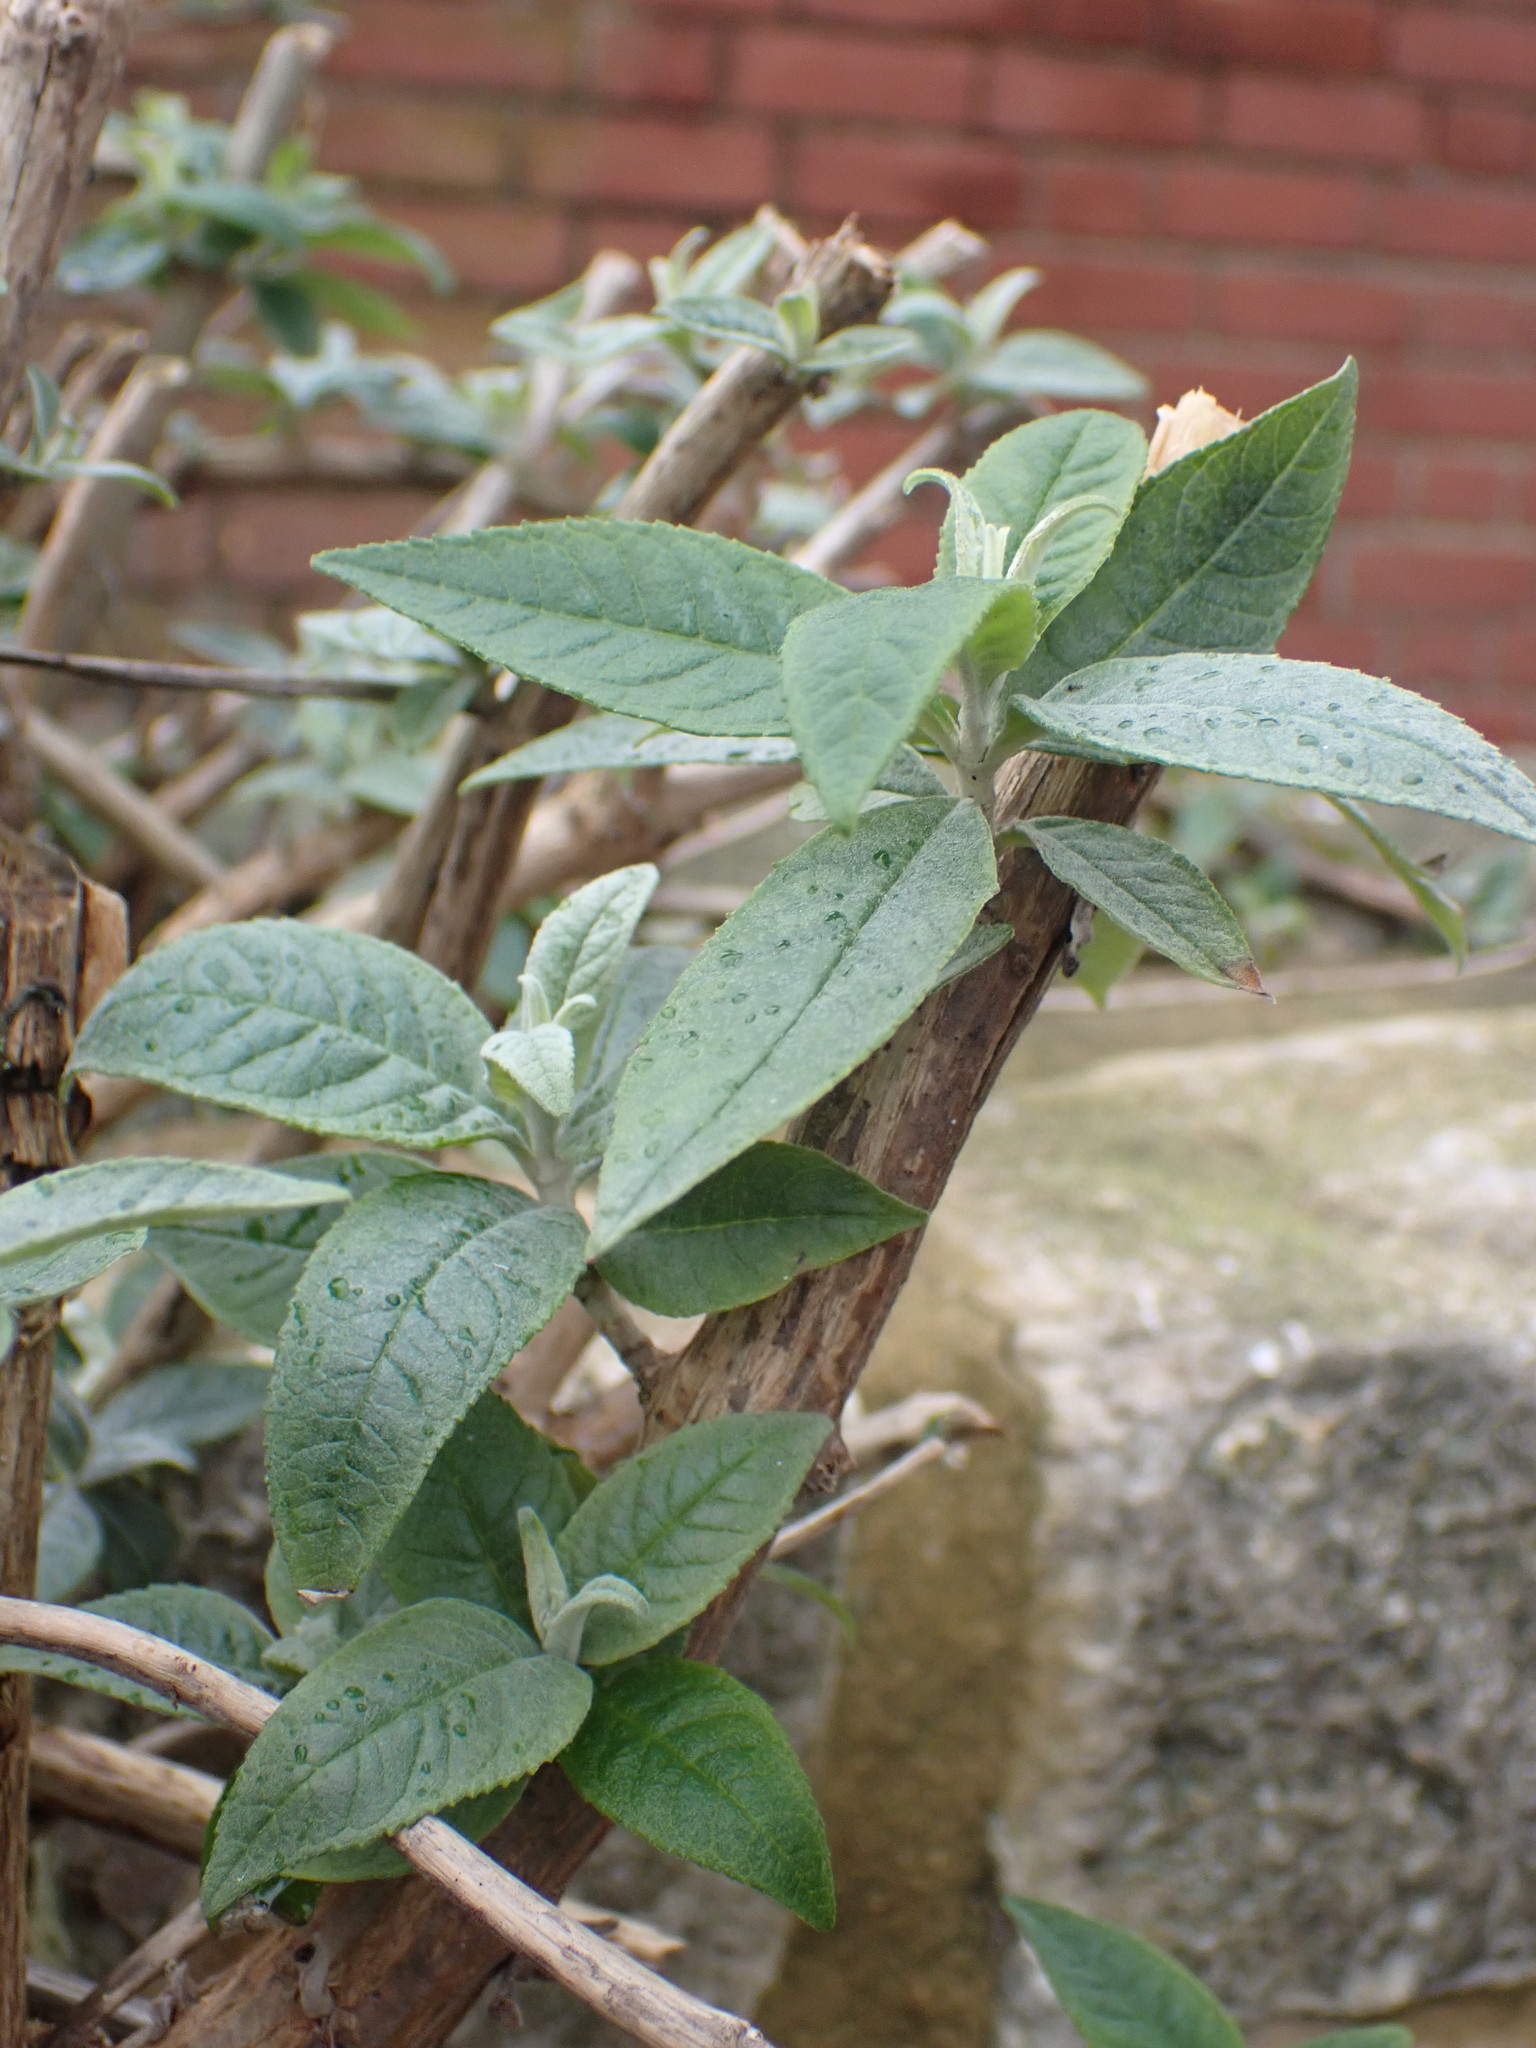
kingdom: Plantae
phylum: Tracheophyta
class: Magnoliopsida
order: Lamiales
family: Scrophulariaceae
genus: Buddleja
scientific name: Buddleja davidii
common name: Butterfly-bush
